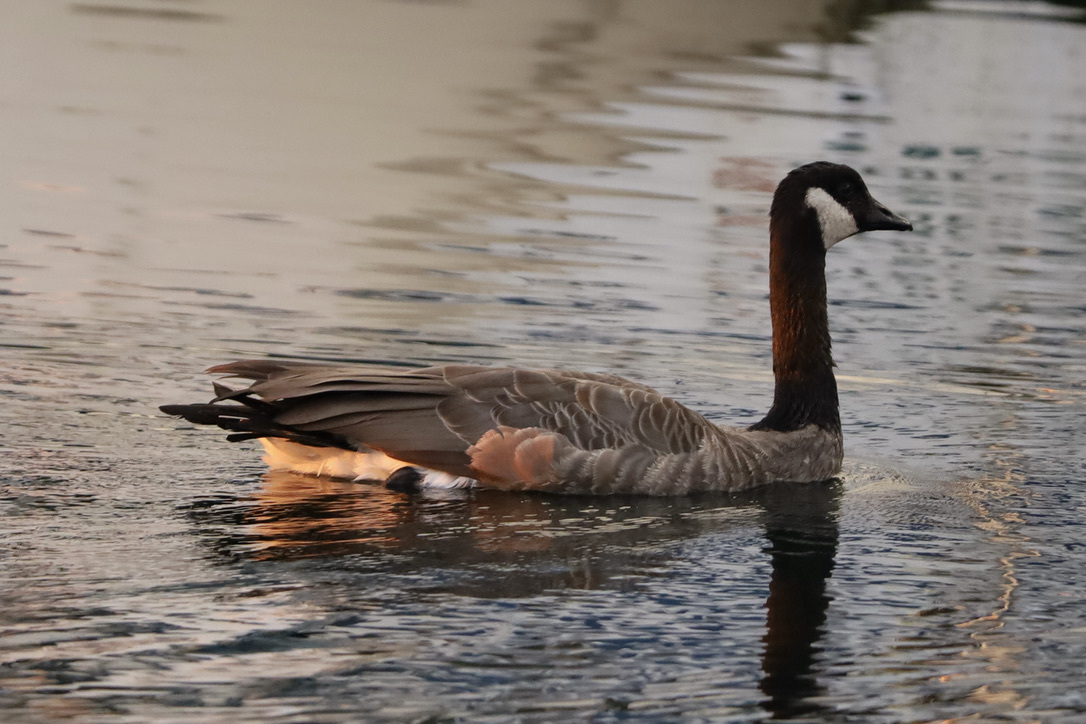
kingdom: Animalia
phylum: Chordata
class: Aves
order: Anseriformes
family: Anatidae
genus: Branta
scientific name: Branta canadensis
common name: Canada goose
